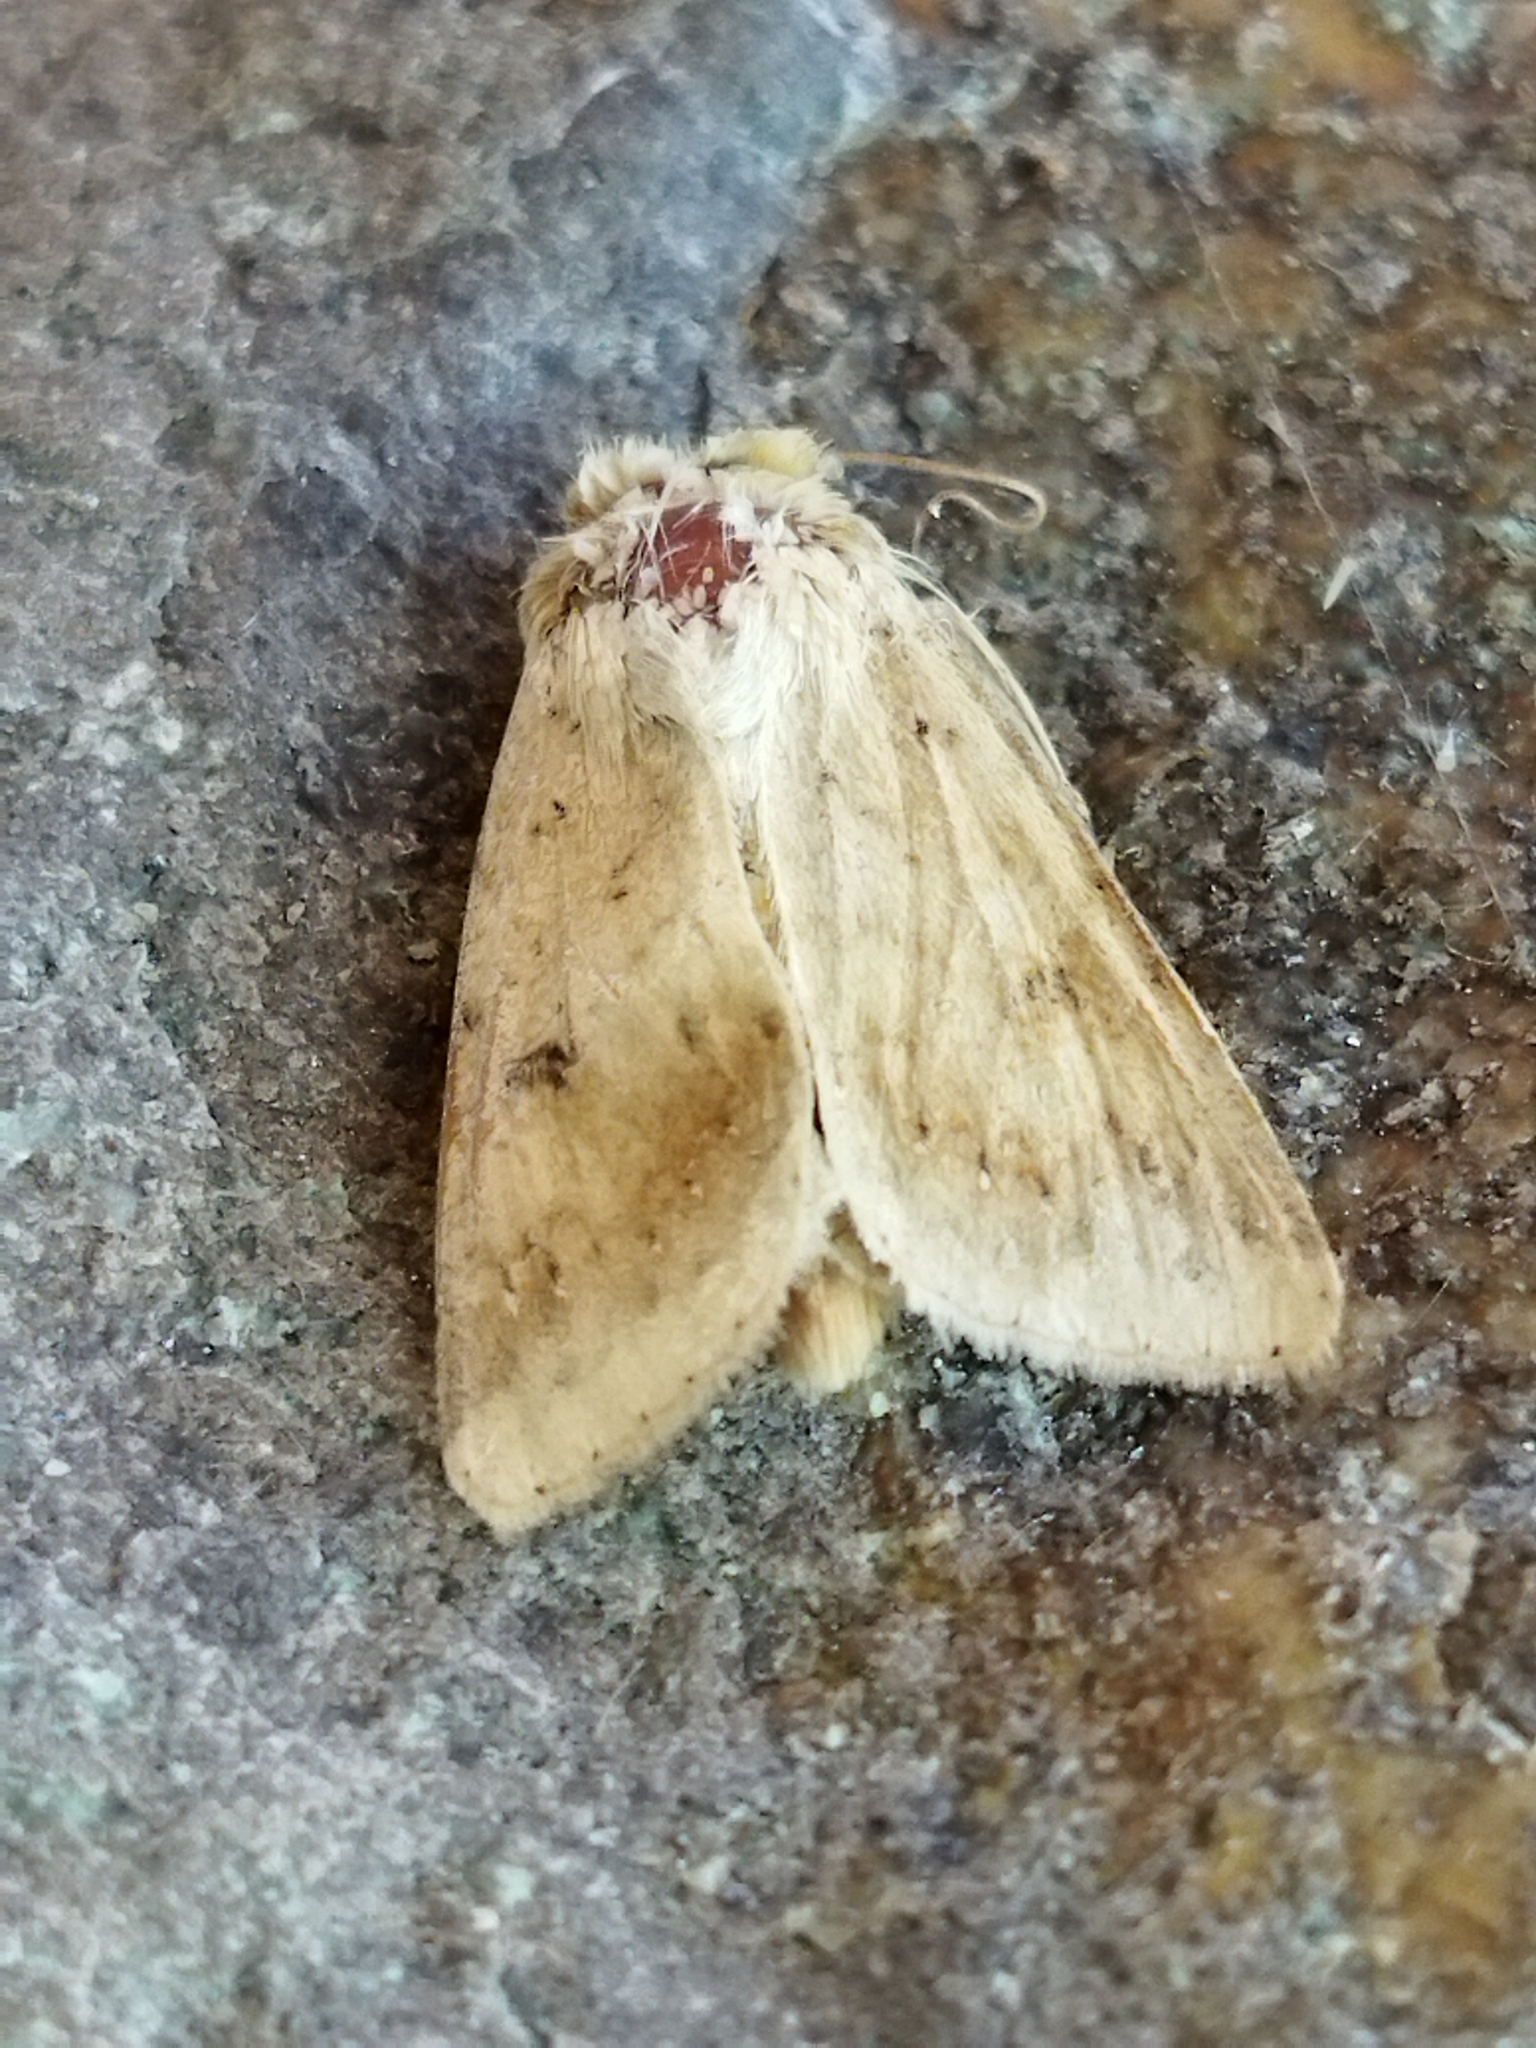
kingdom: Animalia
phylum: Arthropoda
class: Insecta
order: Lepidoptera
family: Noctuidae
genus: Helicoverpa
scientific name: Helicoverpa armigera
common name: Cotton bollworm
